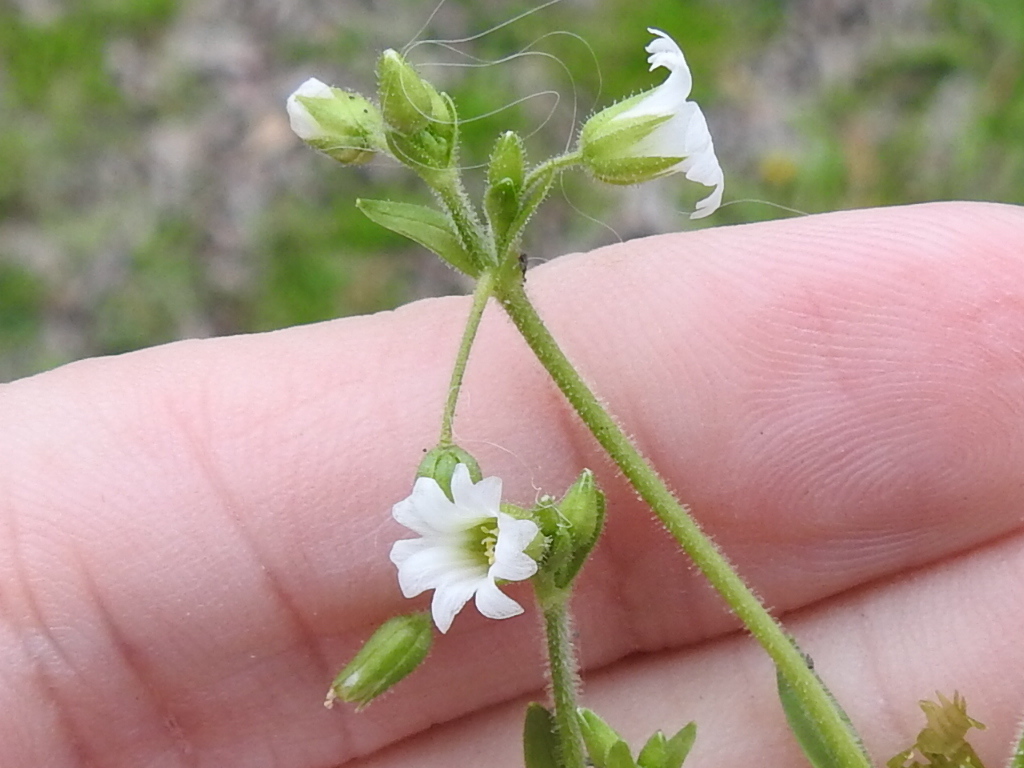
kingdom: Plantae
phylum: Tracheophyta
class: Magnoliopsida
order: Caryophyllales
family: Caryophyllaceae
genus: Cerastium
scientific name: Cerastium brachypodum
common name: Short-pedicelled nodding chickweed
